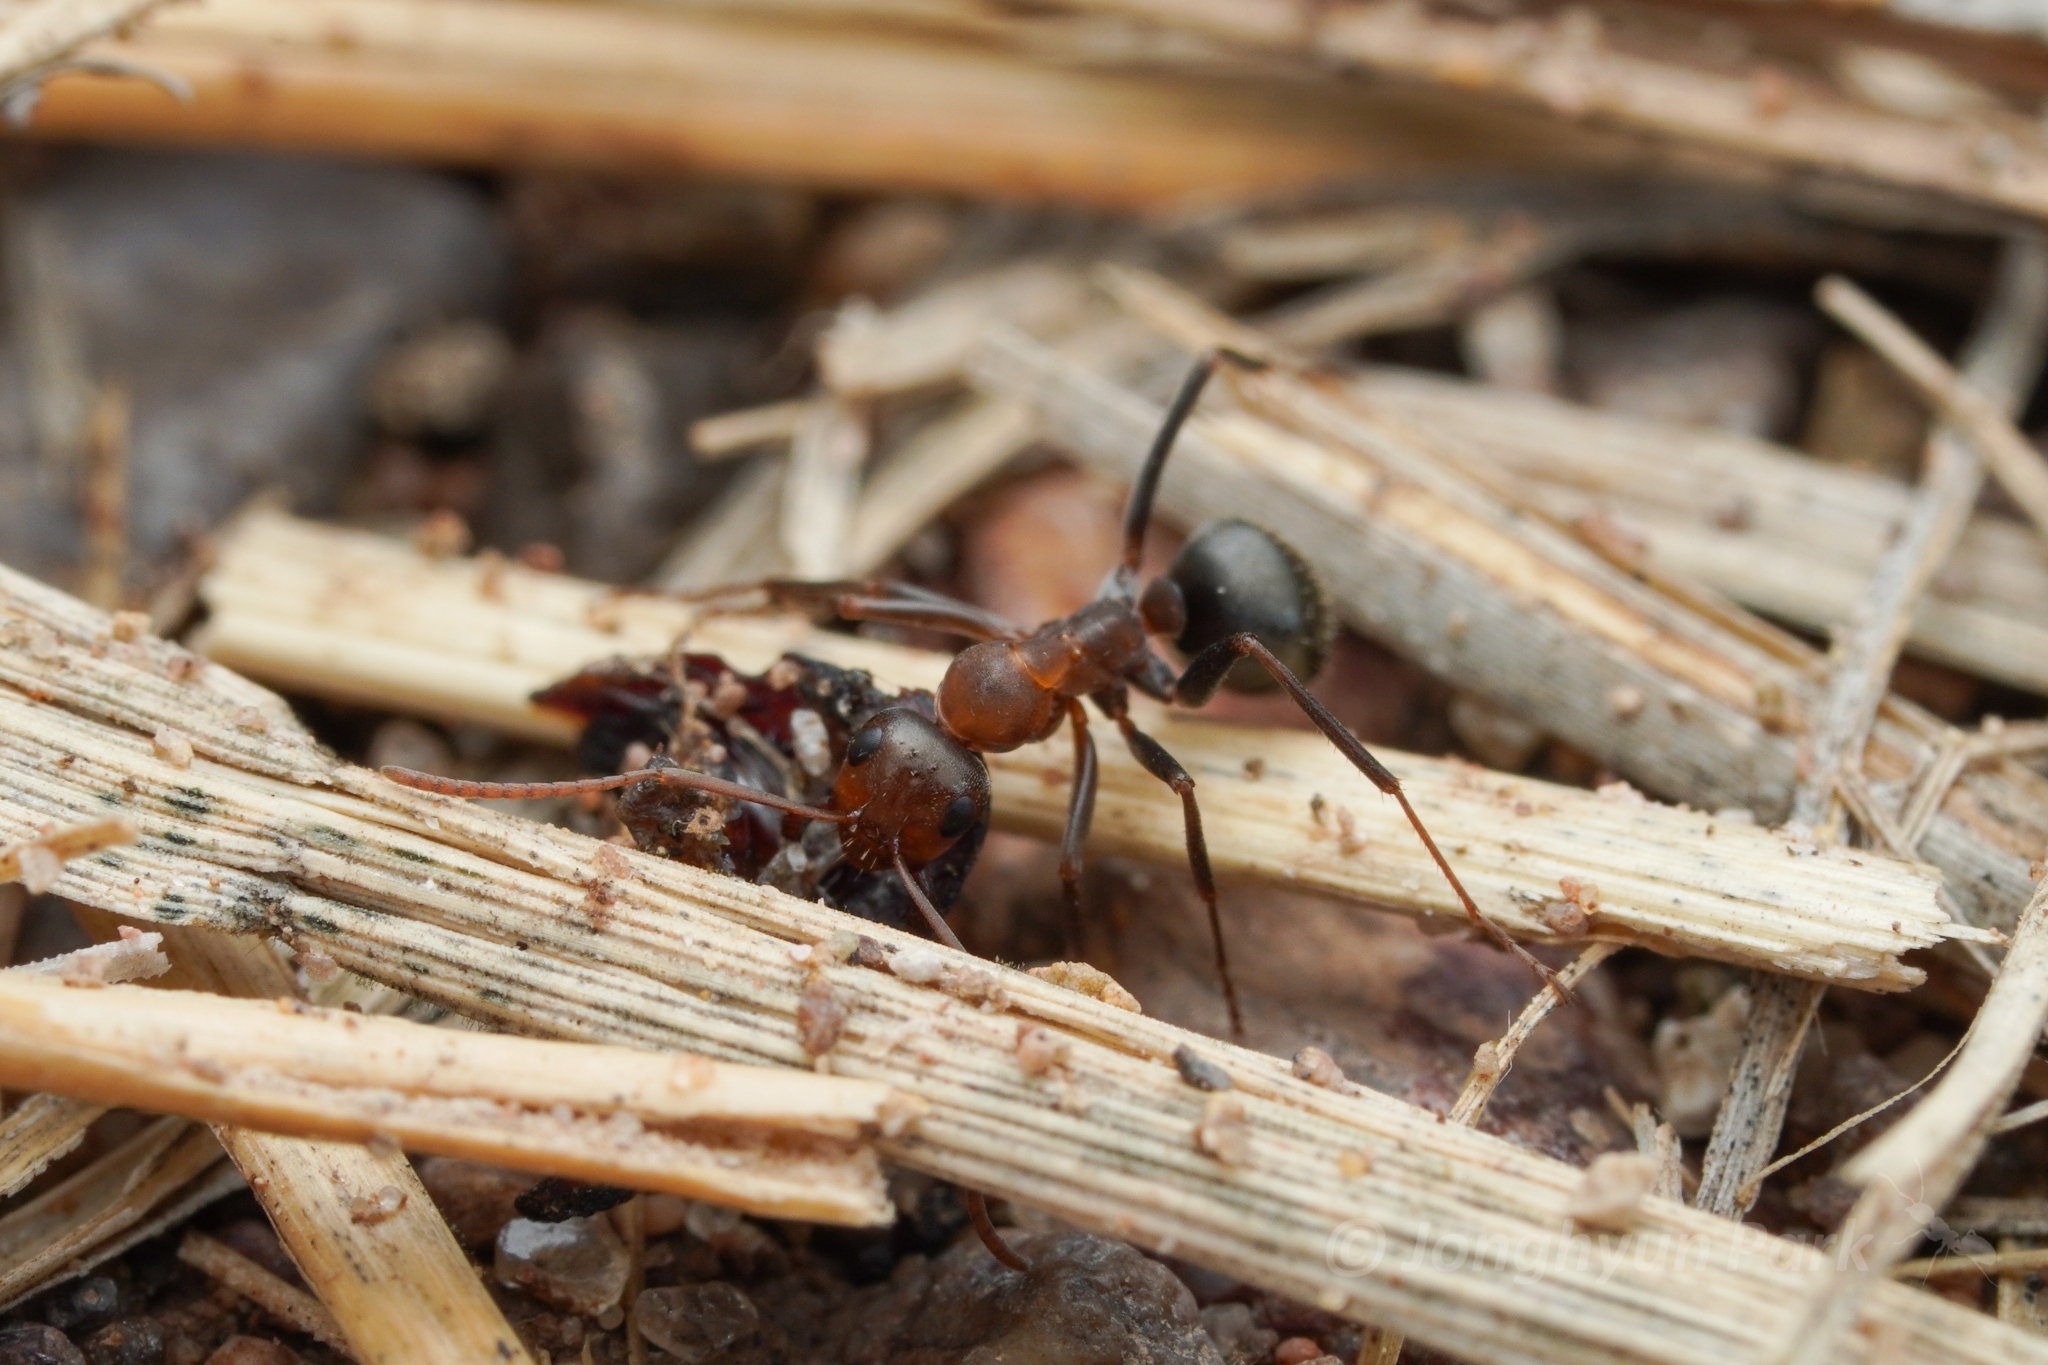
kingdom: Animalia
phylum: Arthropoda
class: Insecta
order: Hymenoptera
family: Formicidae
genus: Formica
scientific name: Formica foreliana
